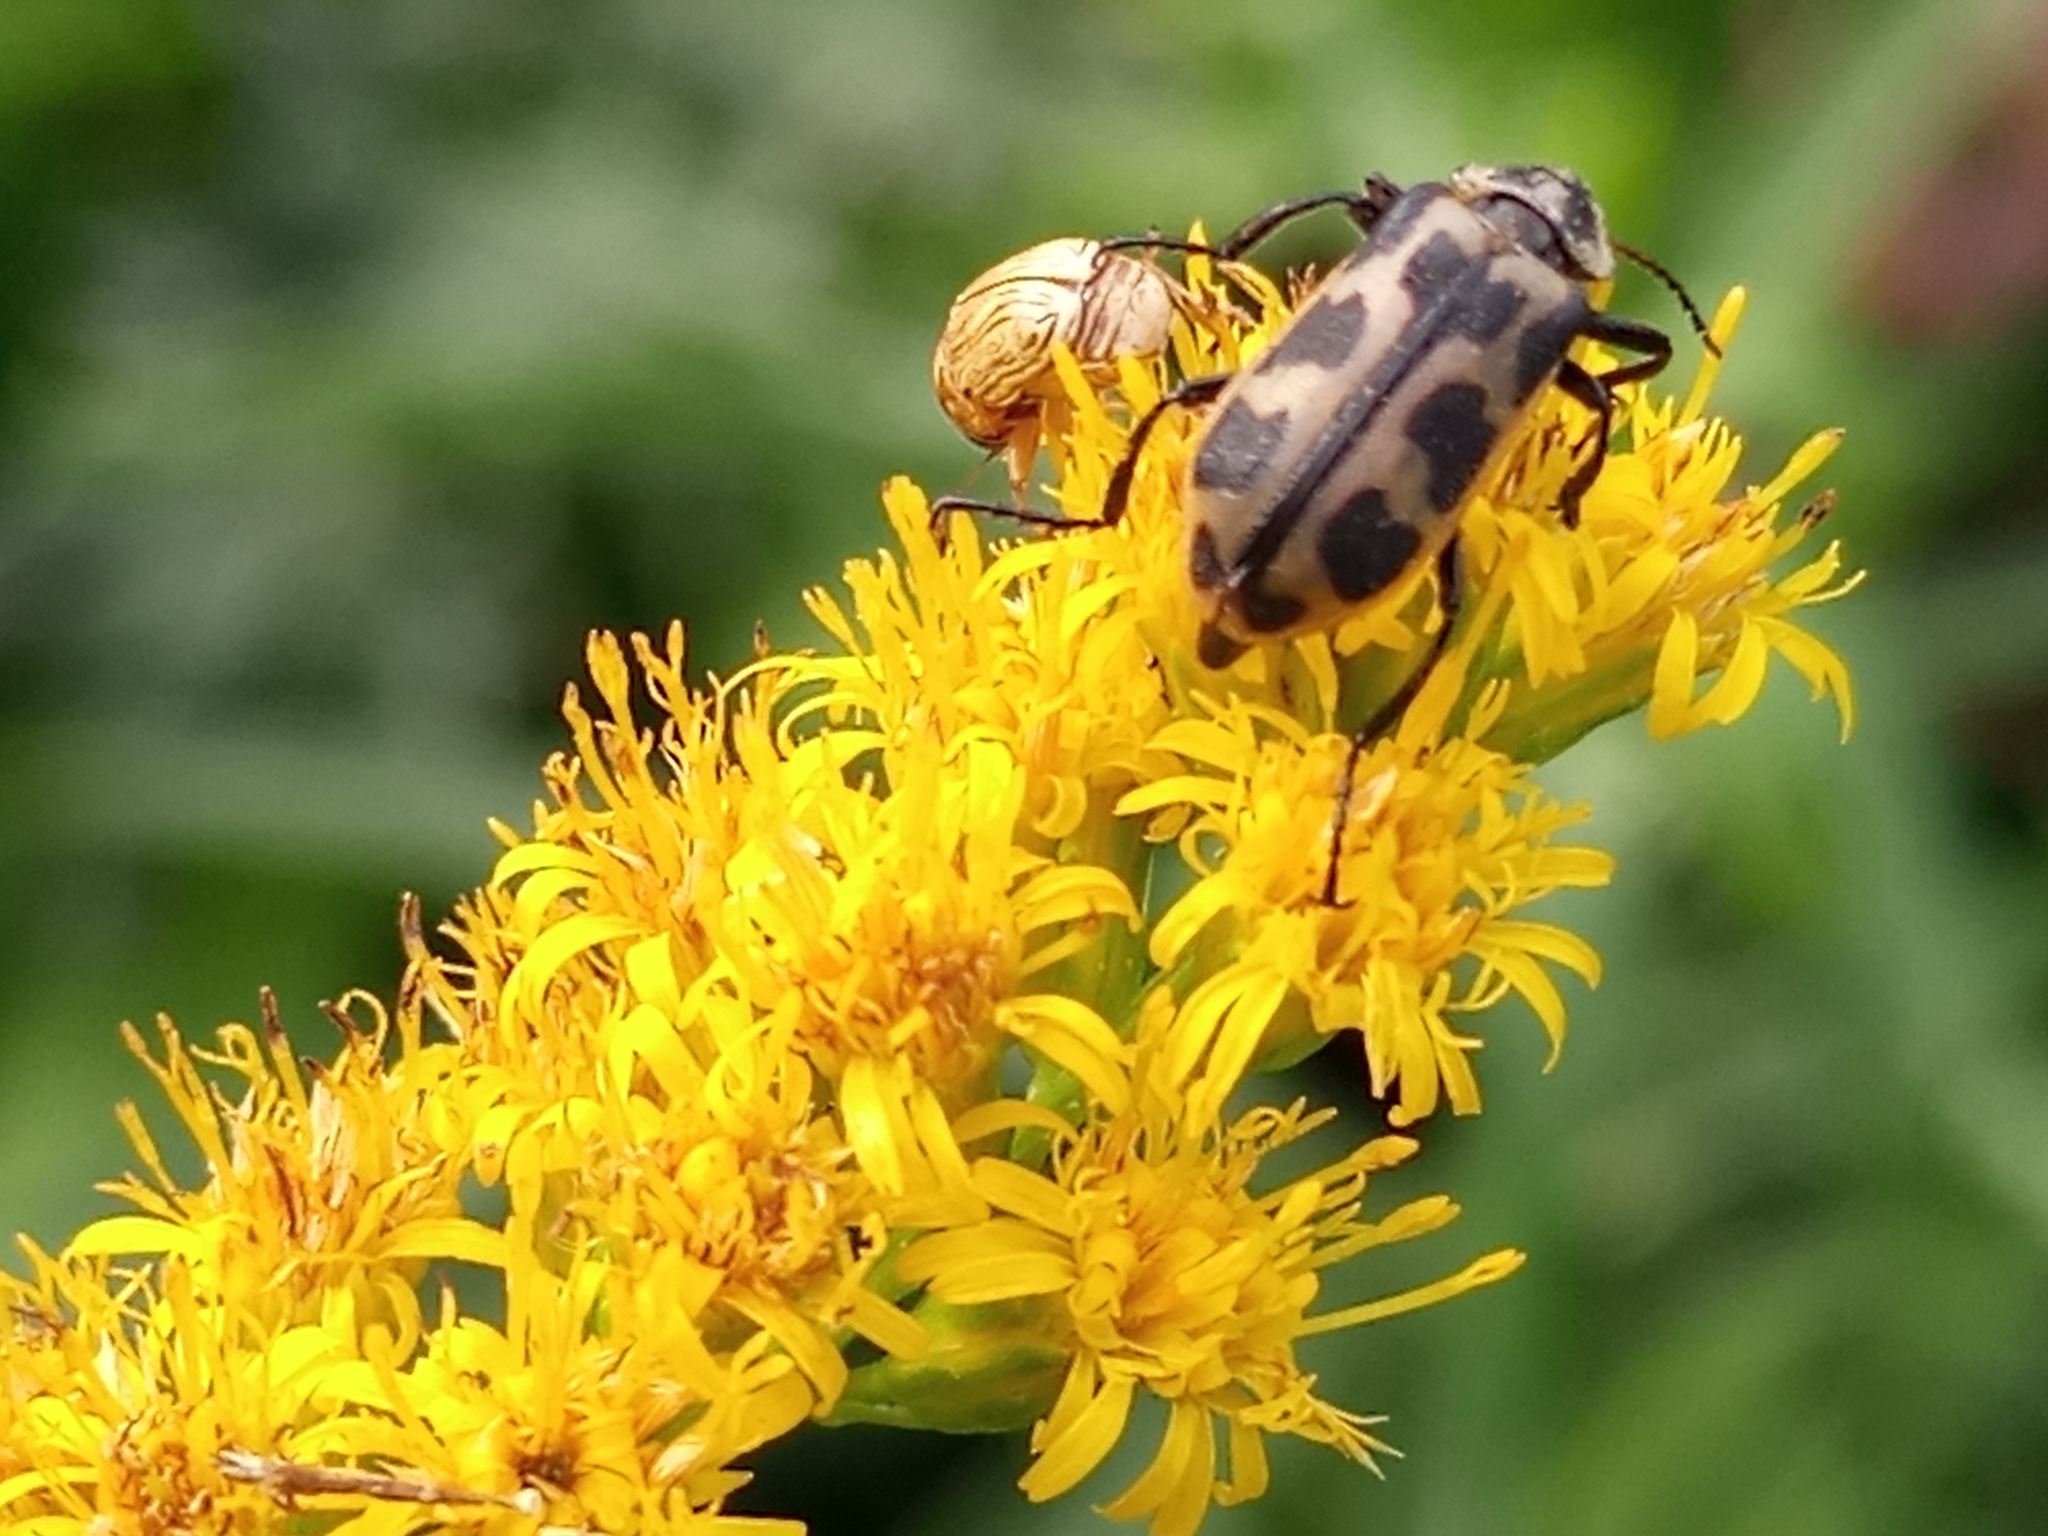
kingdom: Animalia
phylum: Arthropoda
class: Insecta
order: Coleoptera
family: Melyridae
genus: Astylus
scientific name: Astylus atromaculatus
